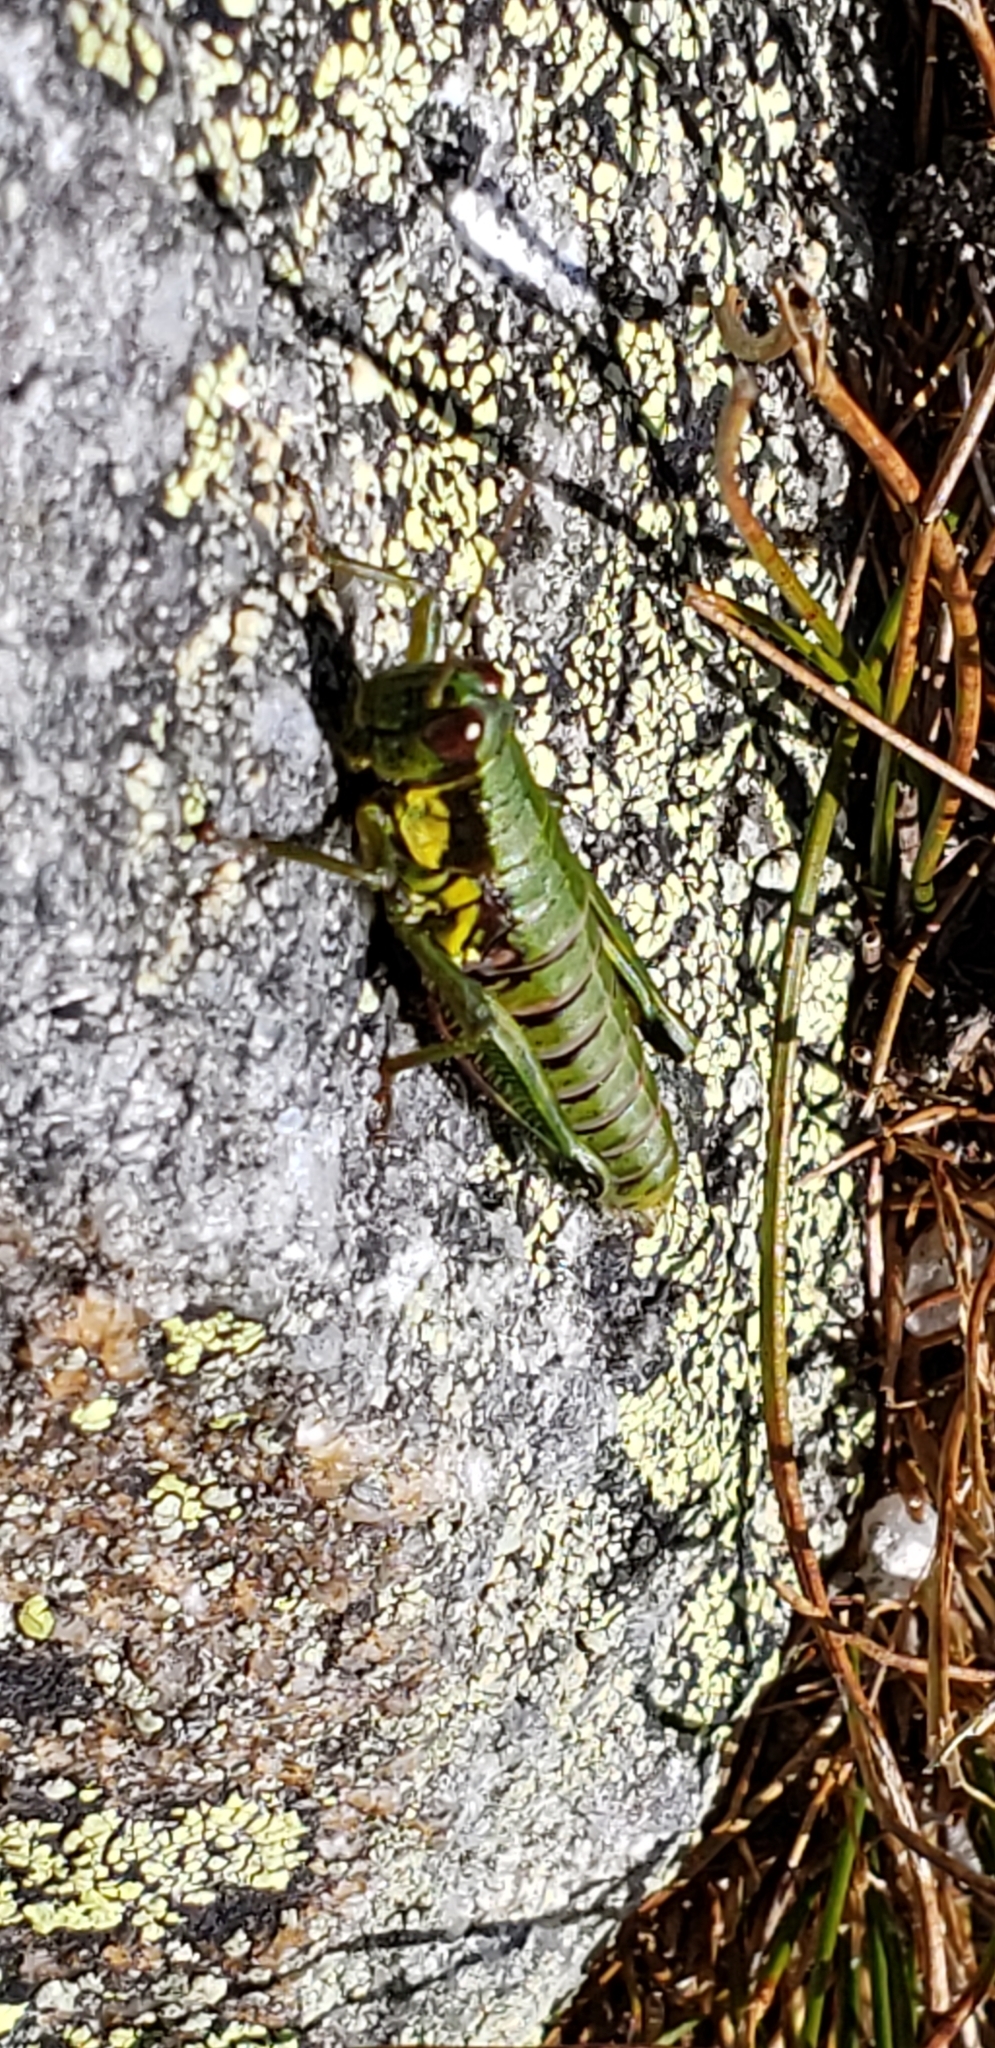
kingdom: Animalia
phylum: Arthropoda
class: Insecta
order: Orthoptera
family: Acrididae
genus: Booneacris
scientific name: Booneacris glacialis
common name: Wingless mountain grasshopper
